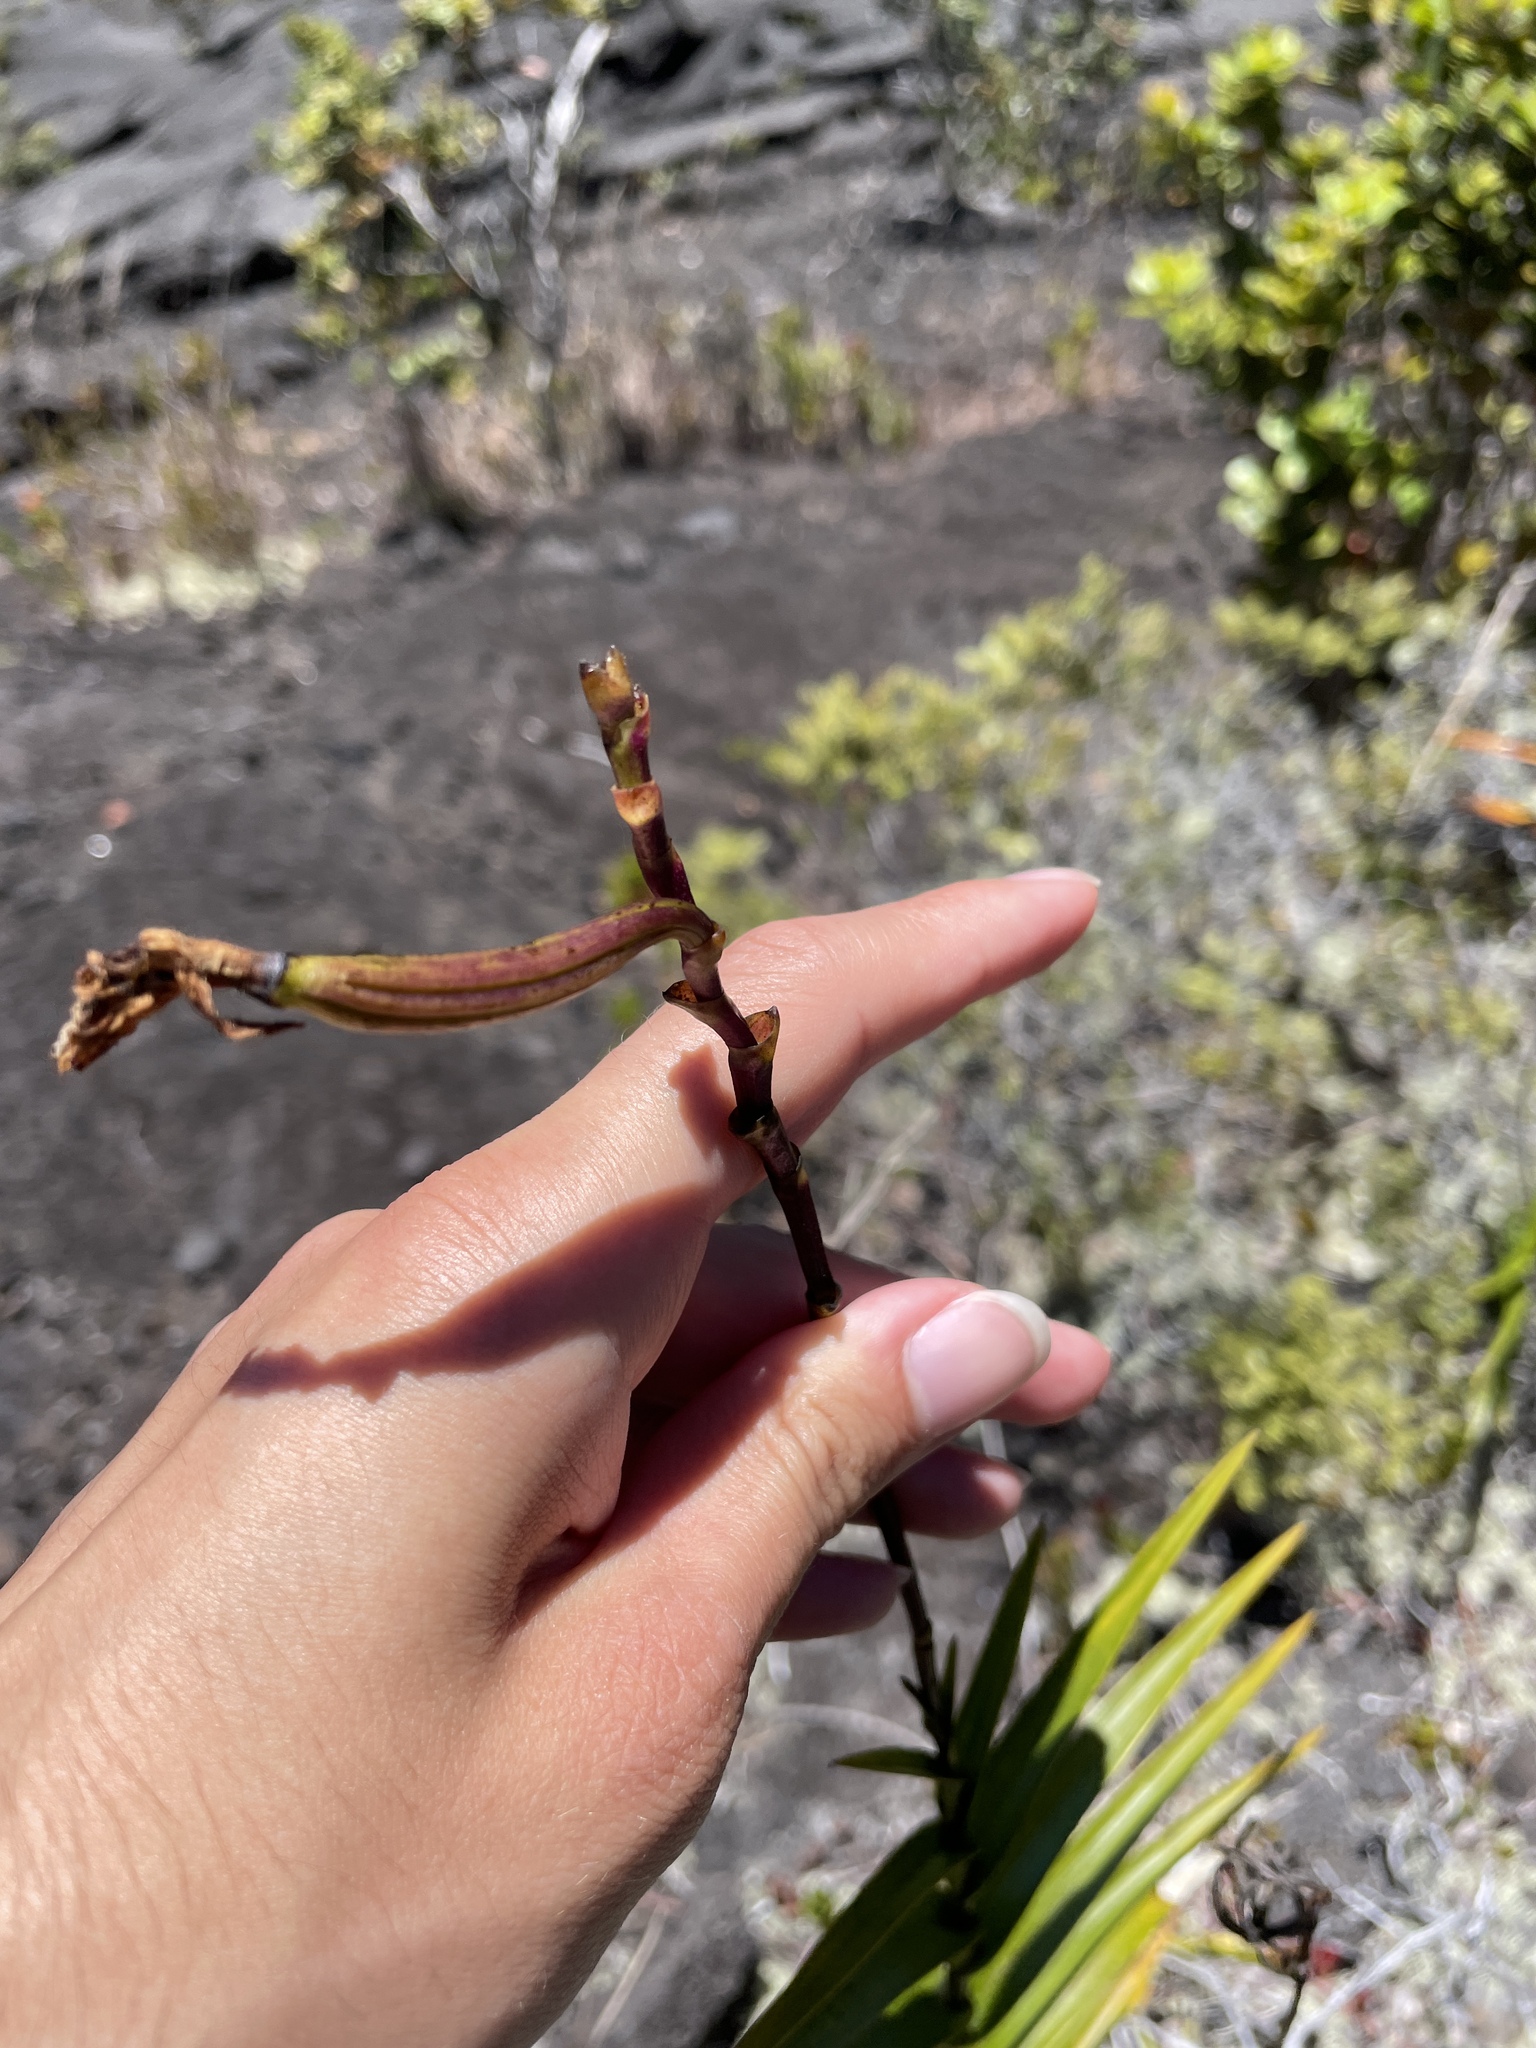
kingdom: Plantae
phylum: Tracheophyta
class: Liliopsida
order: Asparagales
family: Orchidaceae
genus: Arundina
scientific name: Arundina graminifolia
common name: Bamboo orchid
